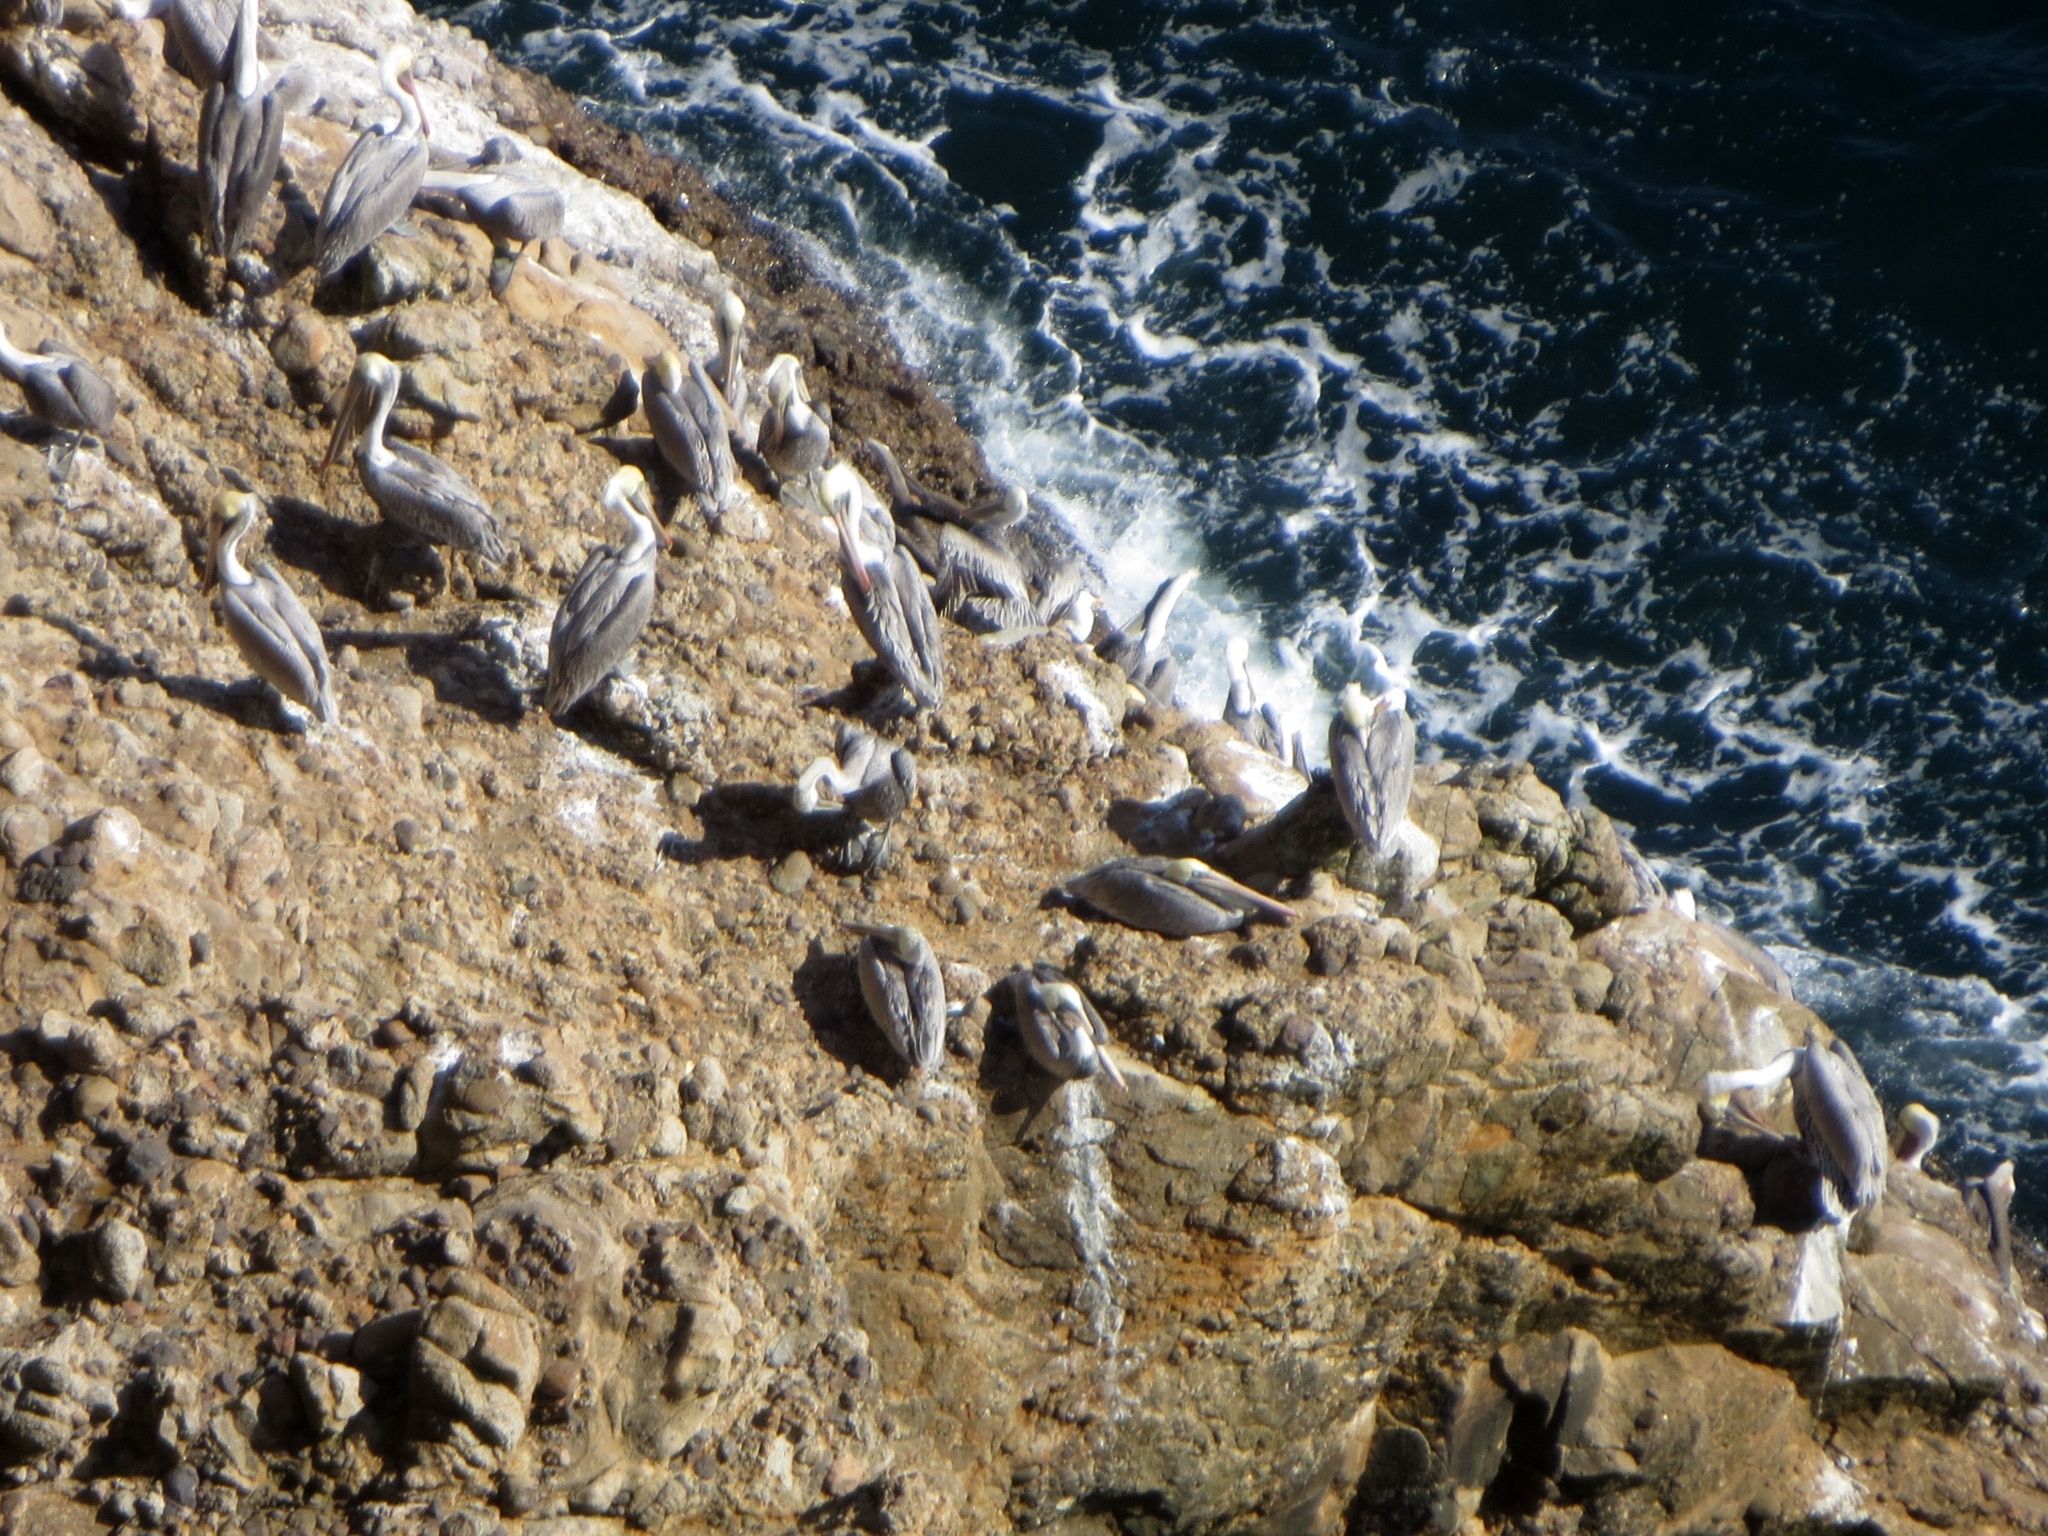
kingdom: Animalia
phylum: Chordata
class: Aves
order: Pelecaniformes
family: Pelecanidae
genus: Pelecanus
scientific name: Pelecanus occidentalis
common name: Brown pelican
